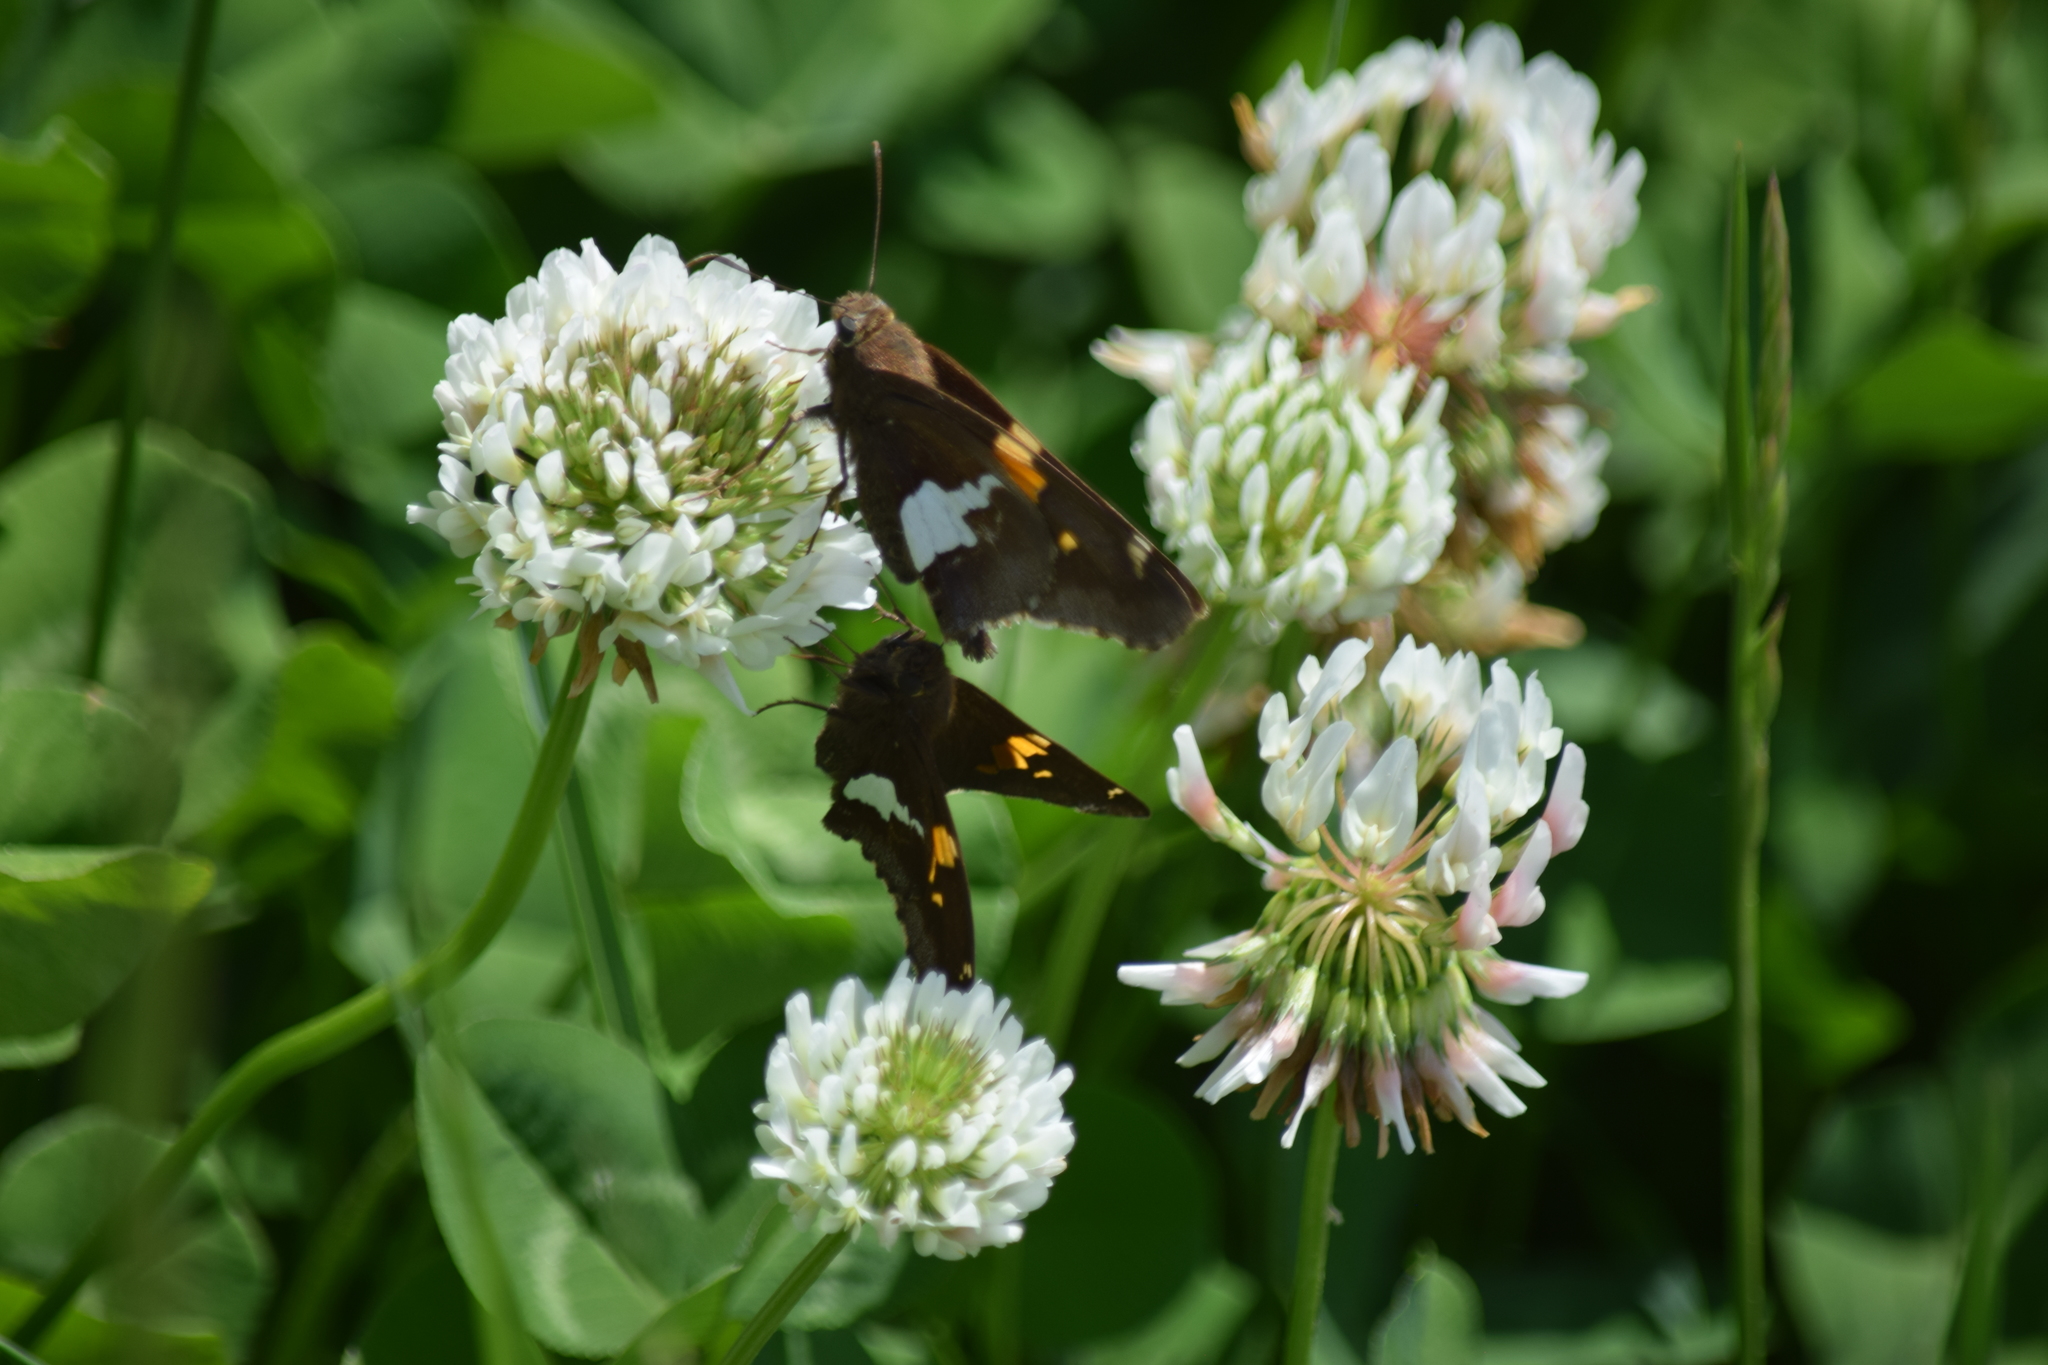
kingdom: Animalia
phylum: Arthropoda
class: Insecta
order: Lepidoptera
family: Hesperiidae
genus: Epargyreus
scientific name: Epargyreus clarus
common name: Silver-spotted skipper
